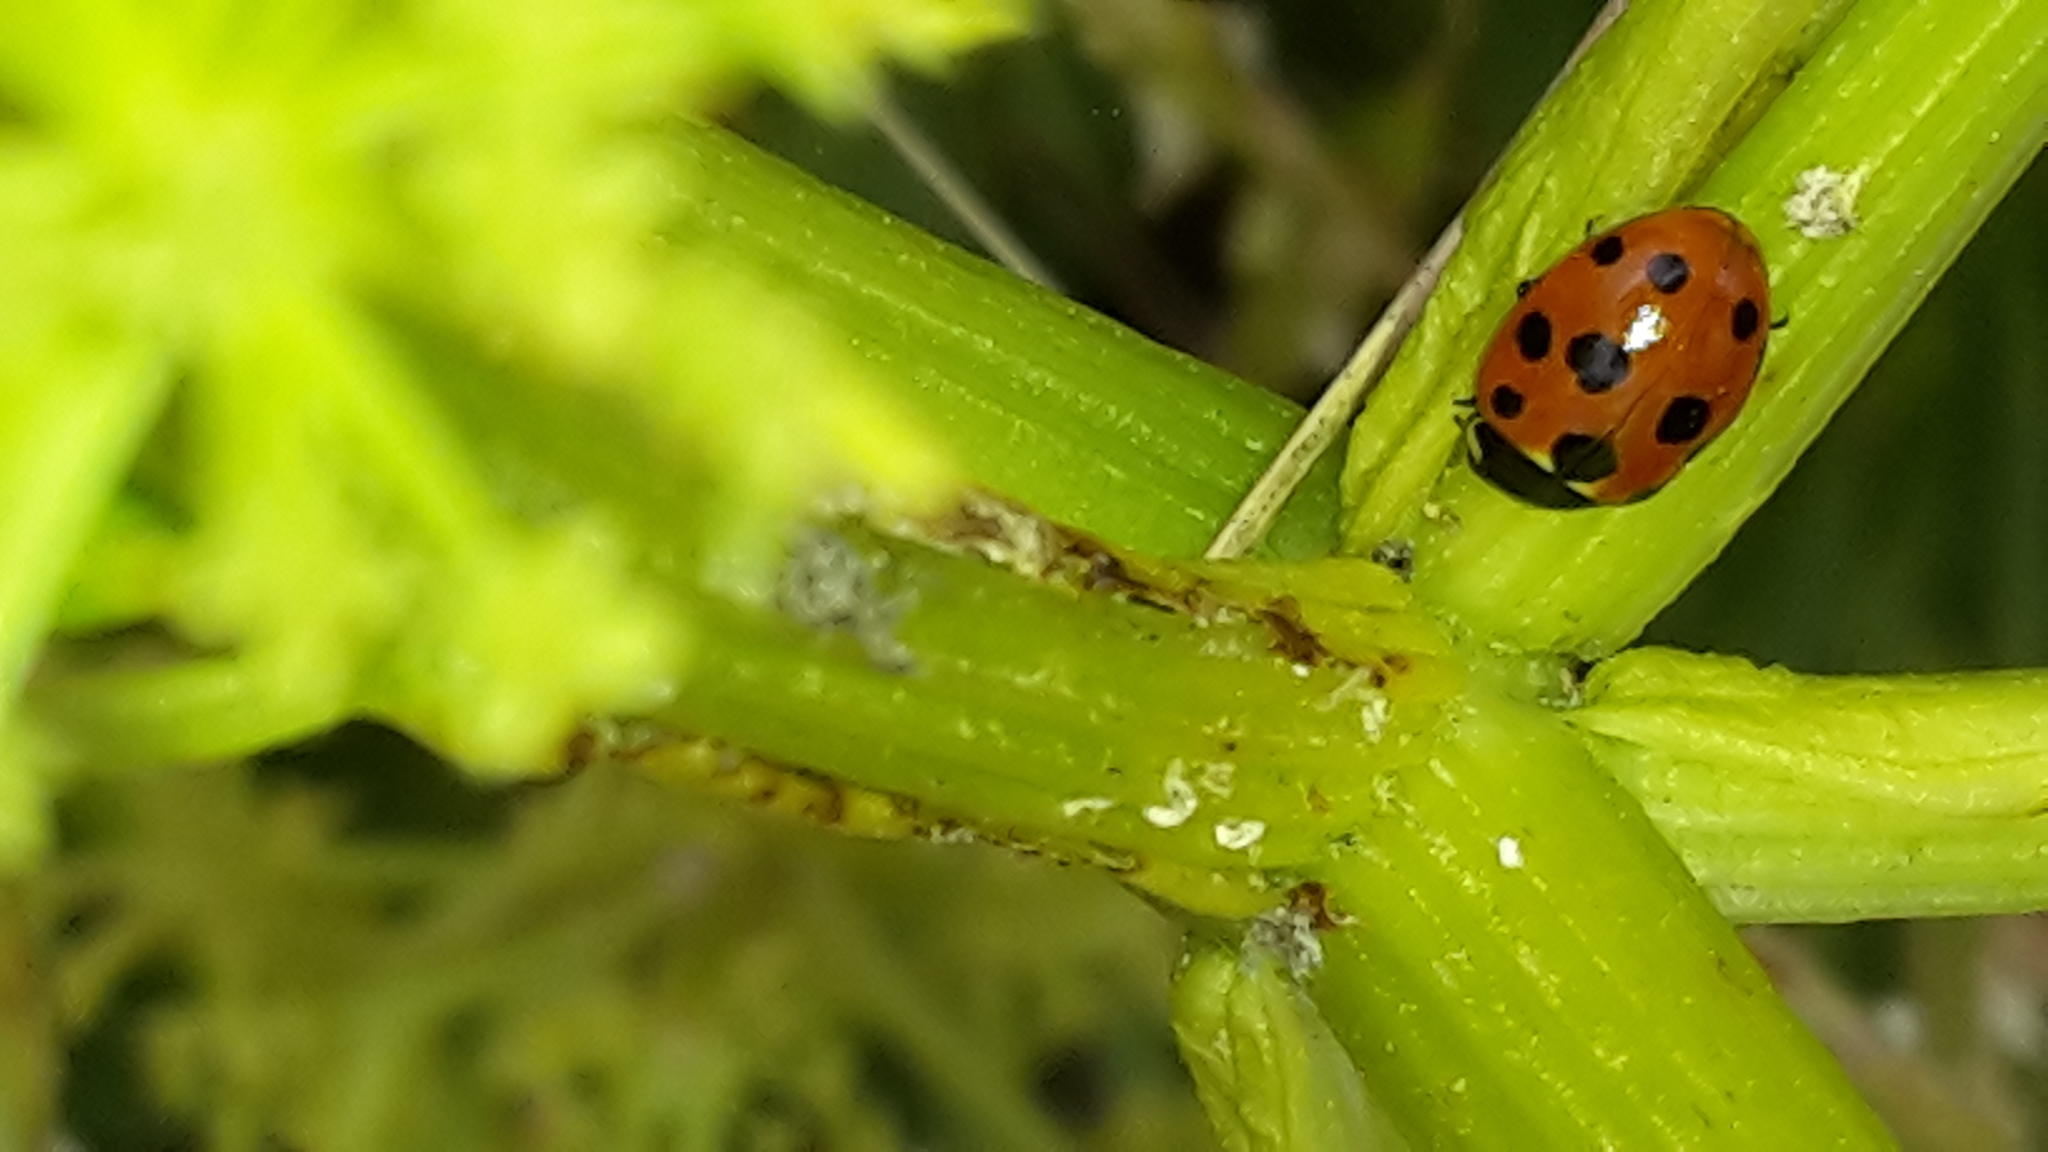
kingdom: Animalia
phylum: Arthropoda
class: Insecta
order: Coleoptera
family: Coccinellidae
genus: Coccinella
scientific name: Coccinella undecimpunctata
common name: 11-spot ladybird
